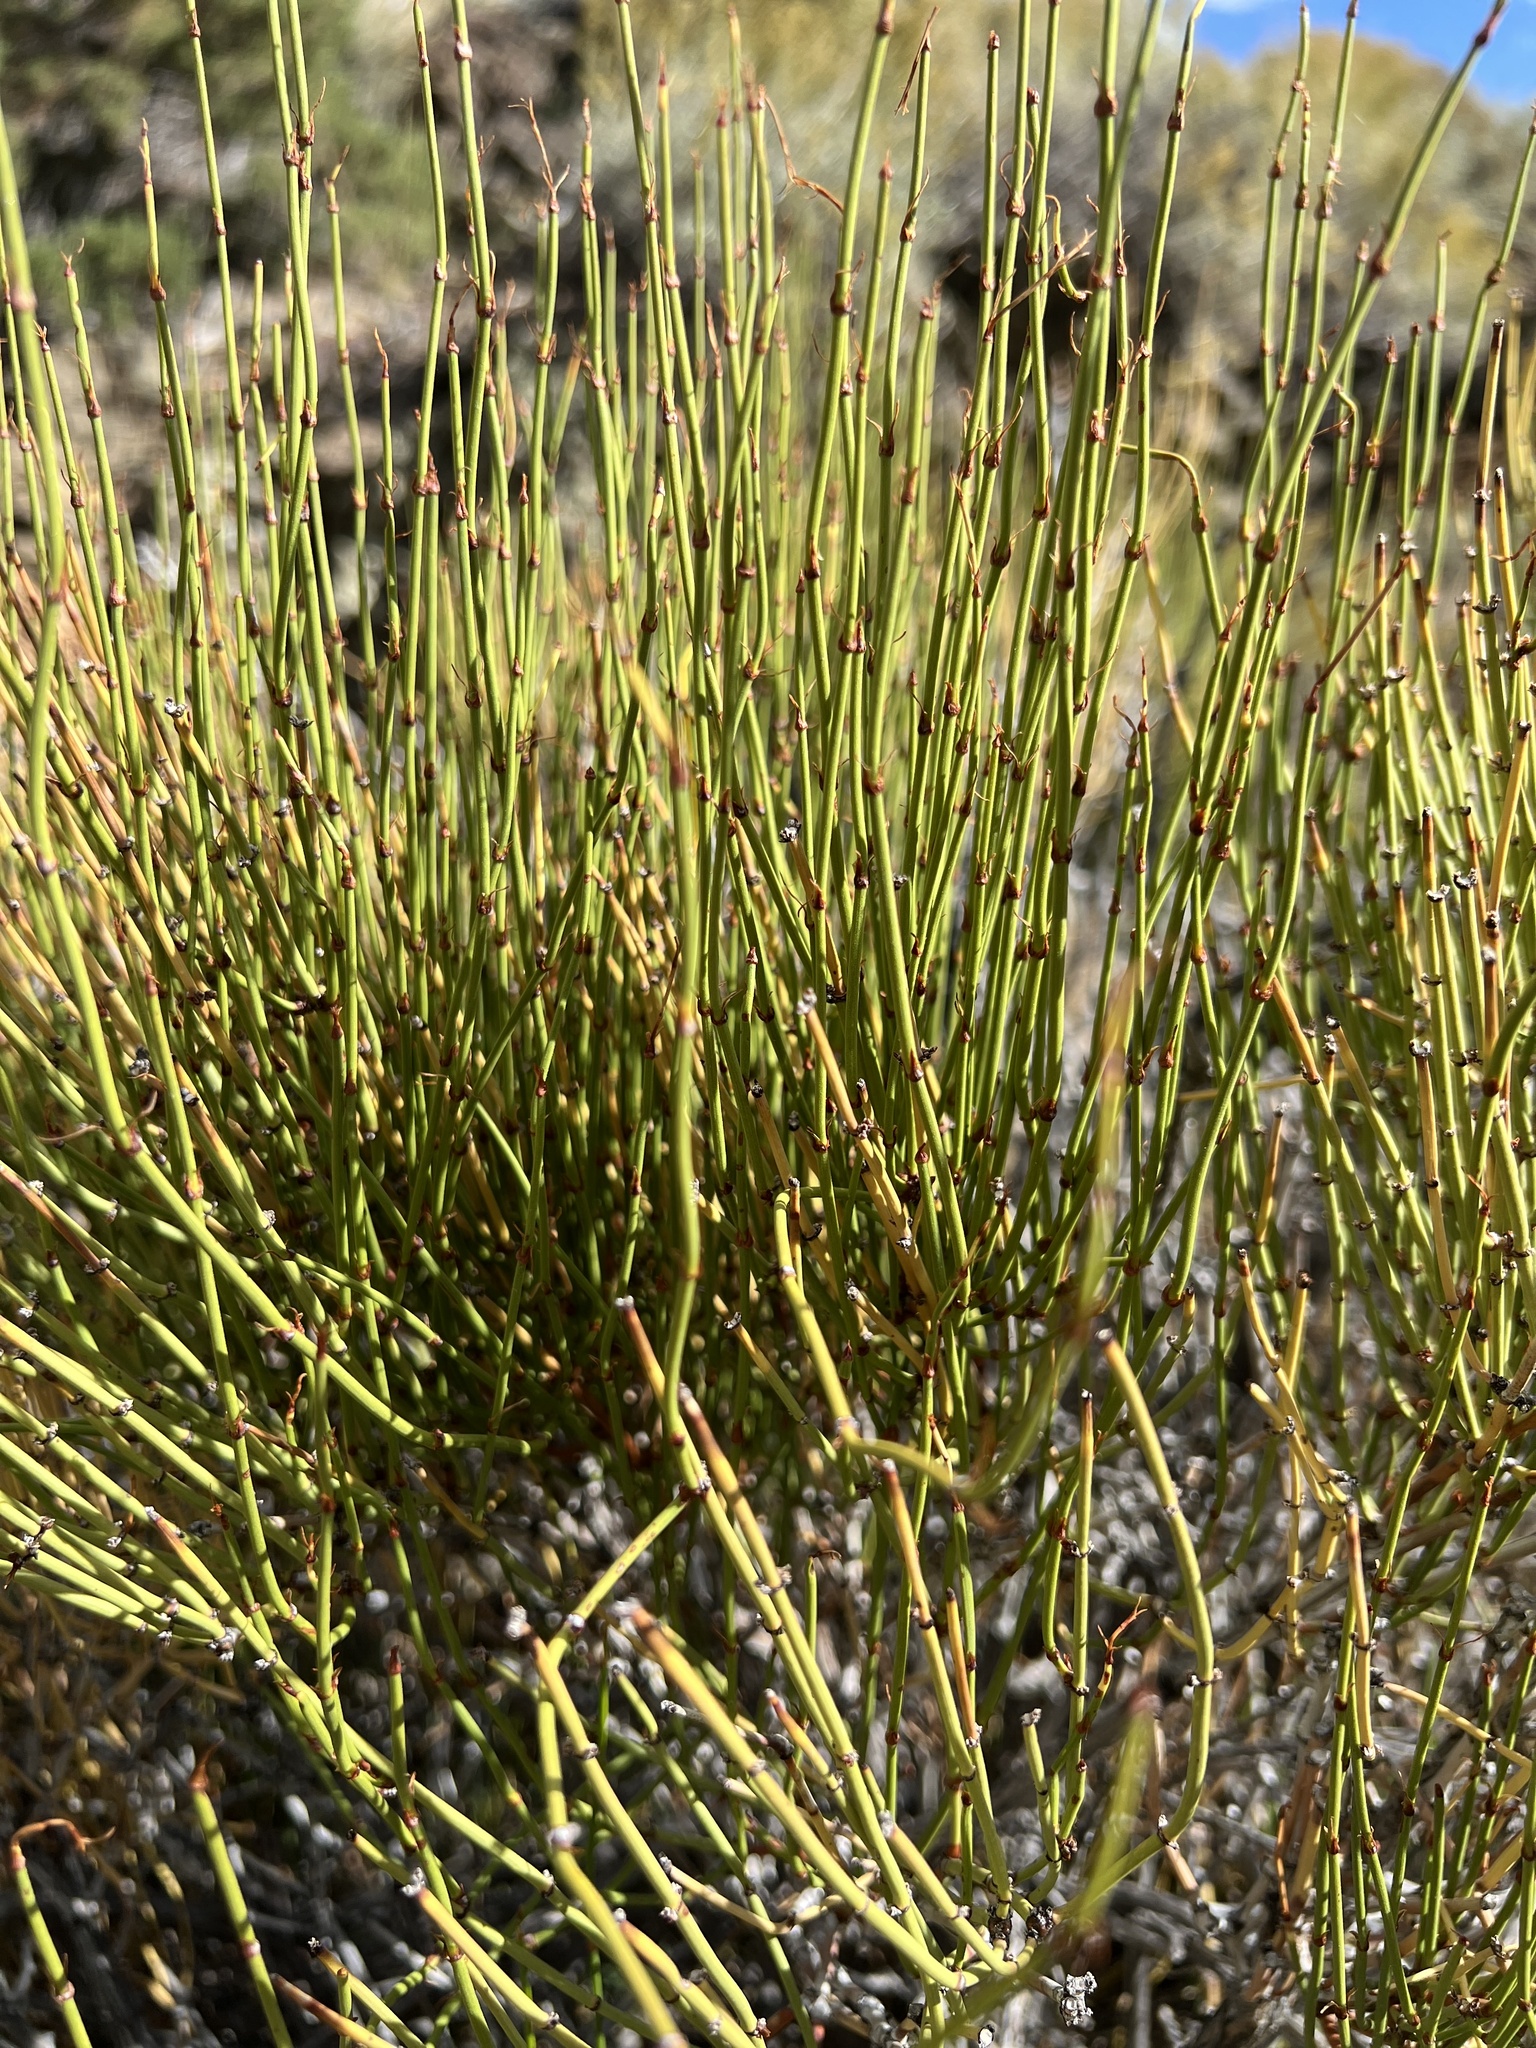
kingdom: Plantae
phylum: Tracheophyta
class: Gnetopsida
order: Ephedrales
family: Ephedraceae
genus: Ephedra
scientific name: Ephedra viridis
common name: Green ephedra
